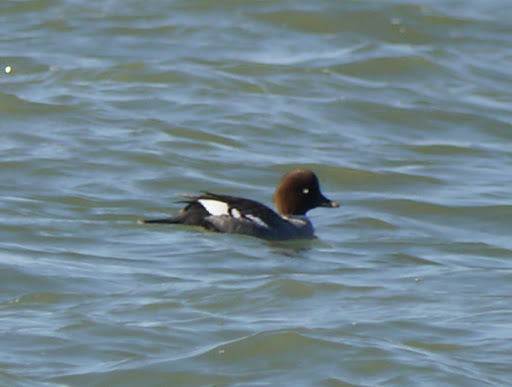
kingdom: Animalia
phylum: Chordata
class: Aves
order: Anseriformes
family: Anatidae
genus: Bucephala
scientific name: Bucephala clangula
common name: Common goldeneye
